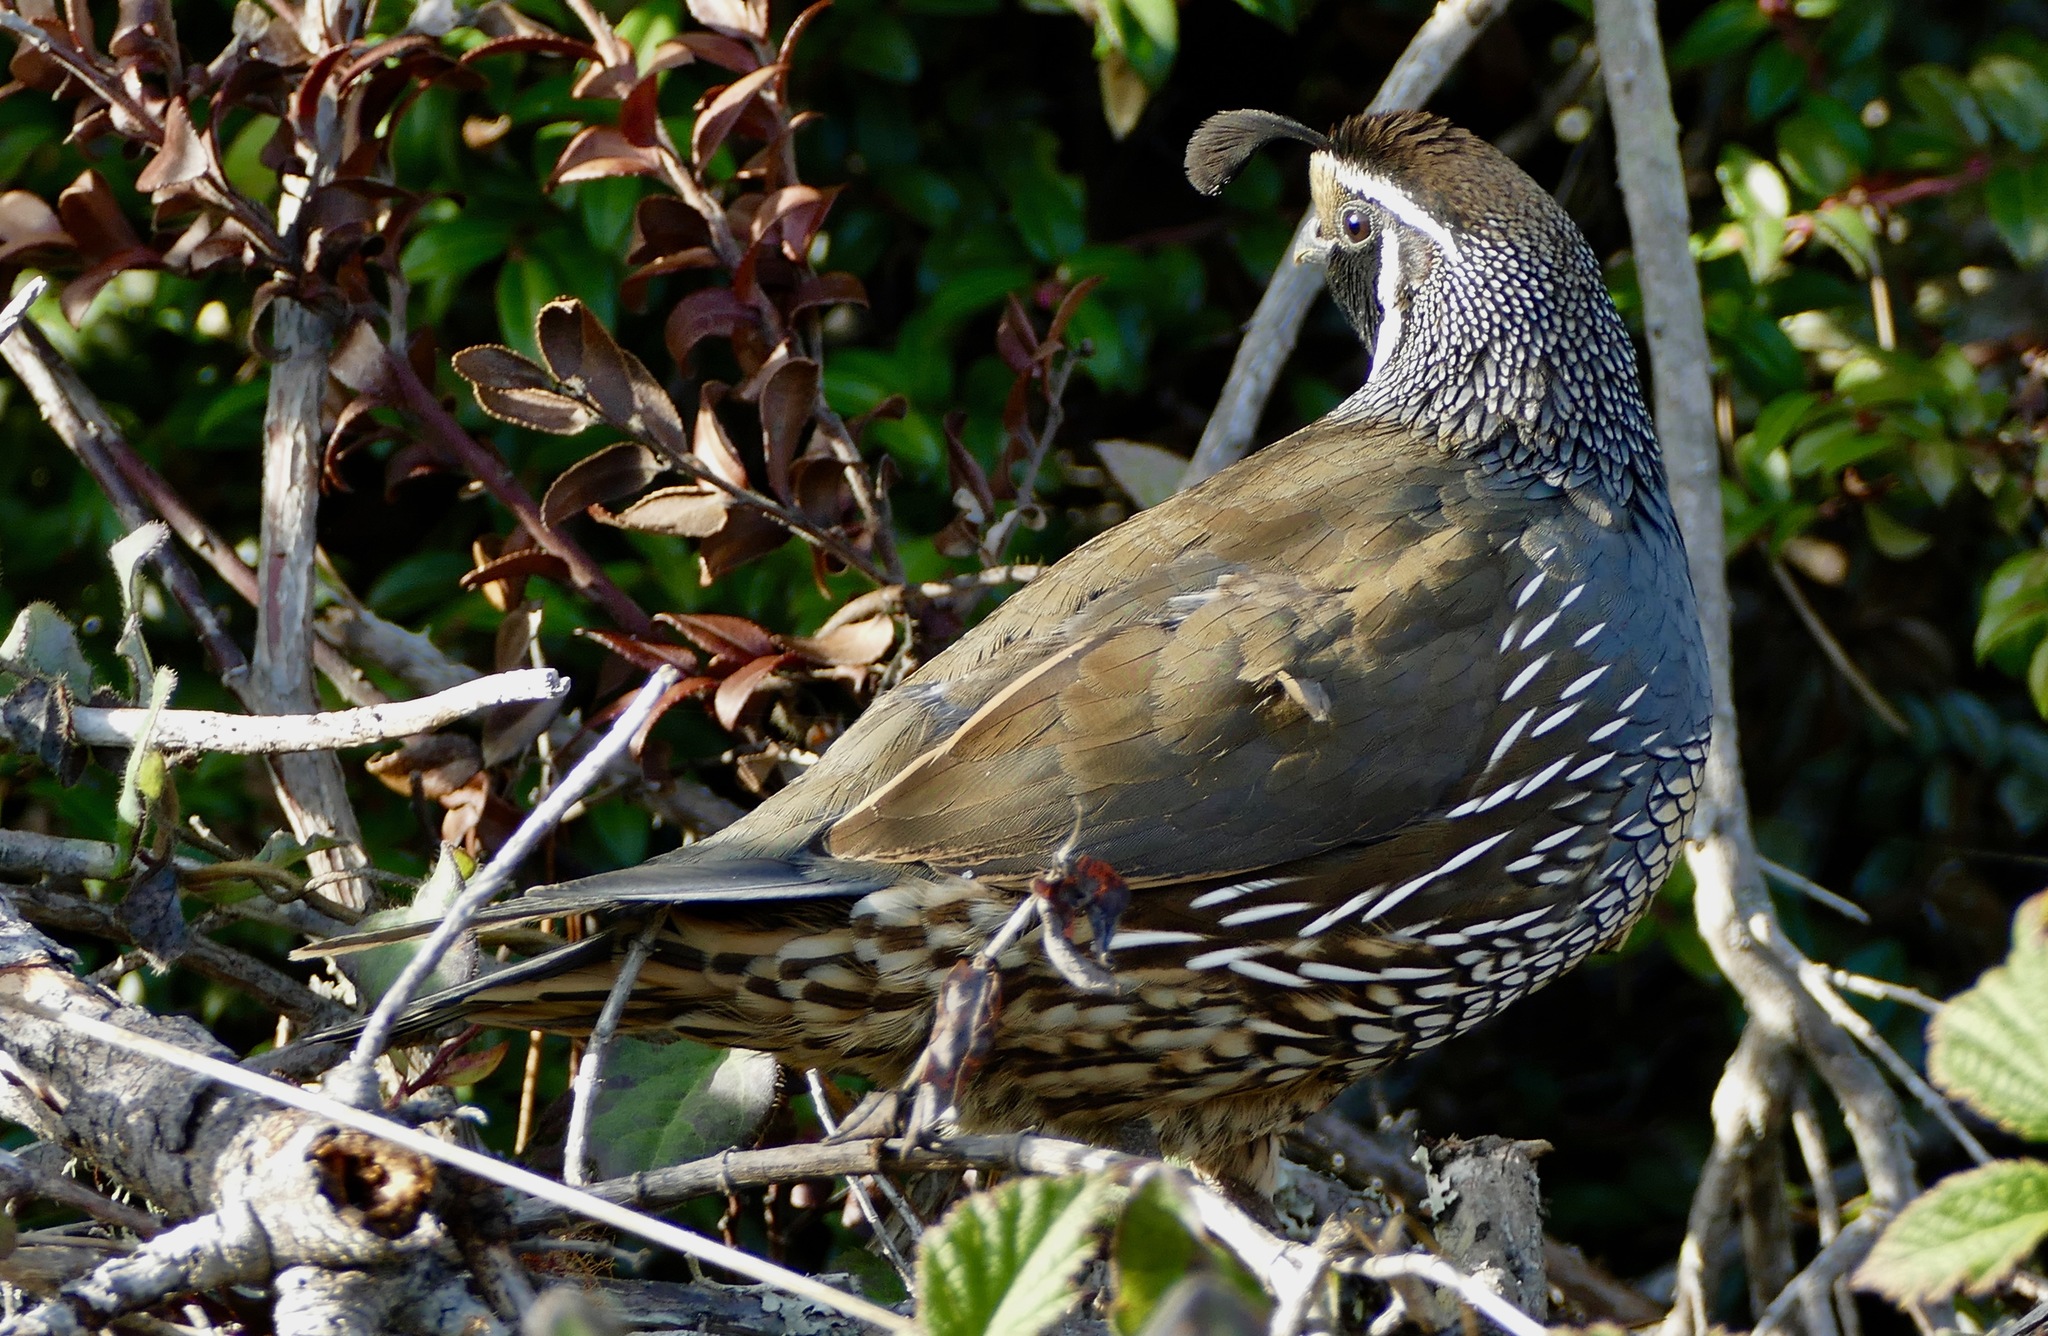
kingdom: Animalia
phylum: Chordata
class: Aves
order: Galliformes
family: Odontophoridae
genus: Callipepla
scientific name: Callipepla californica
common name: California quail
